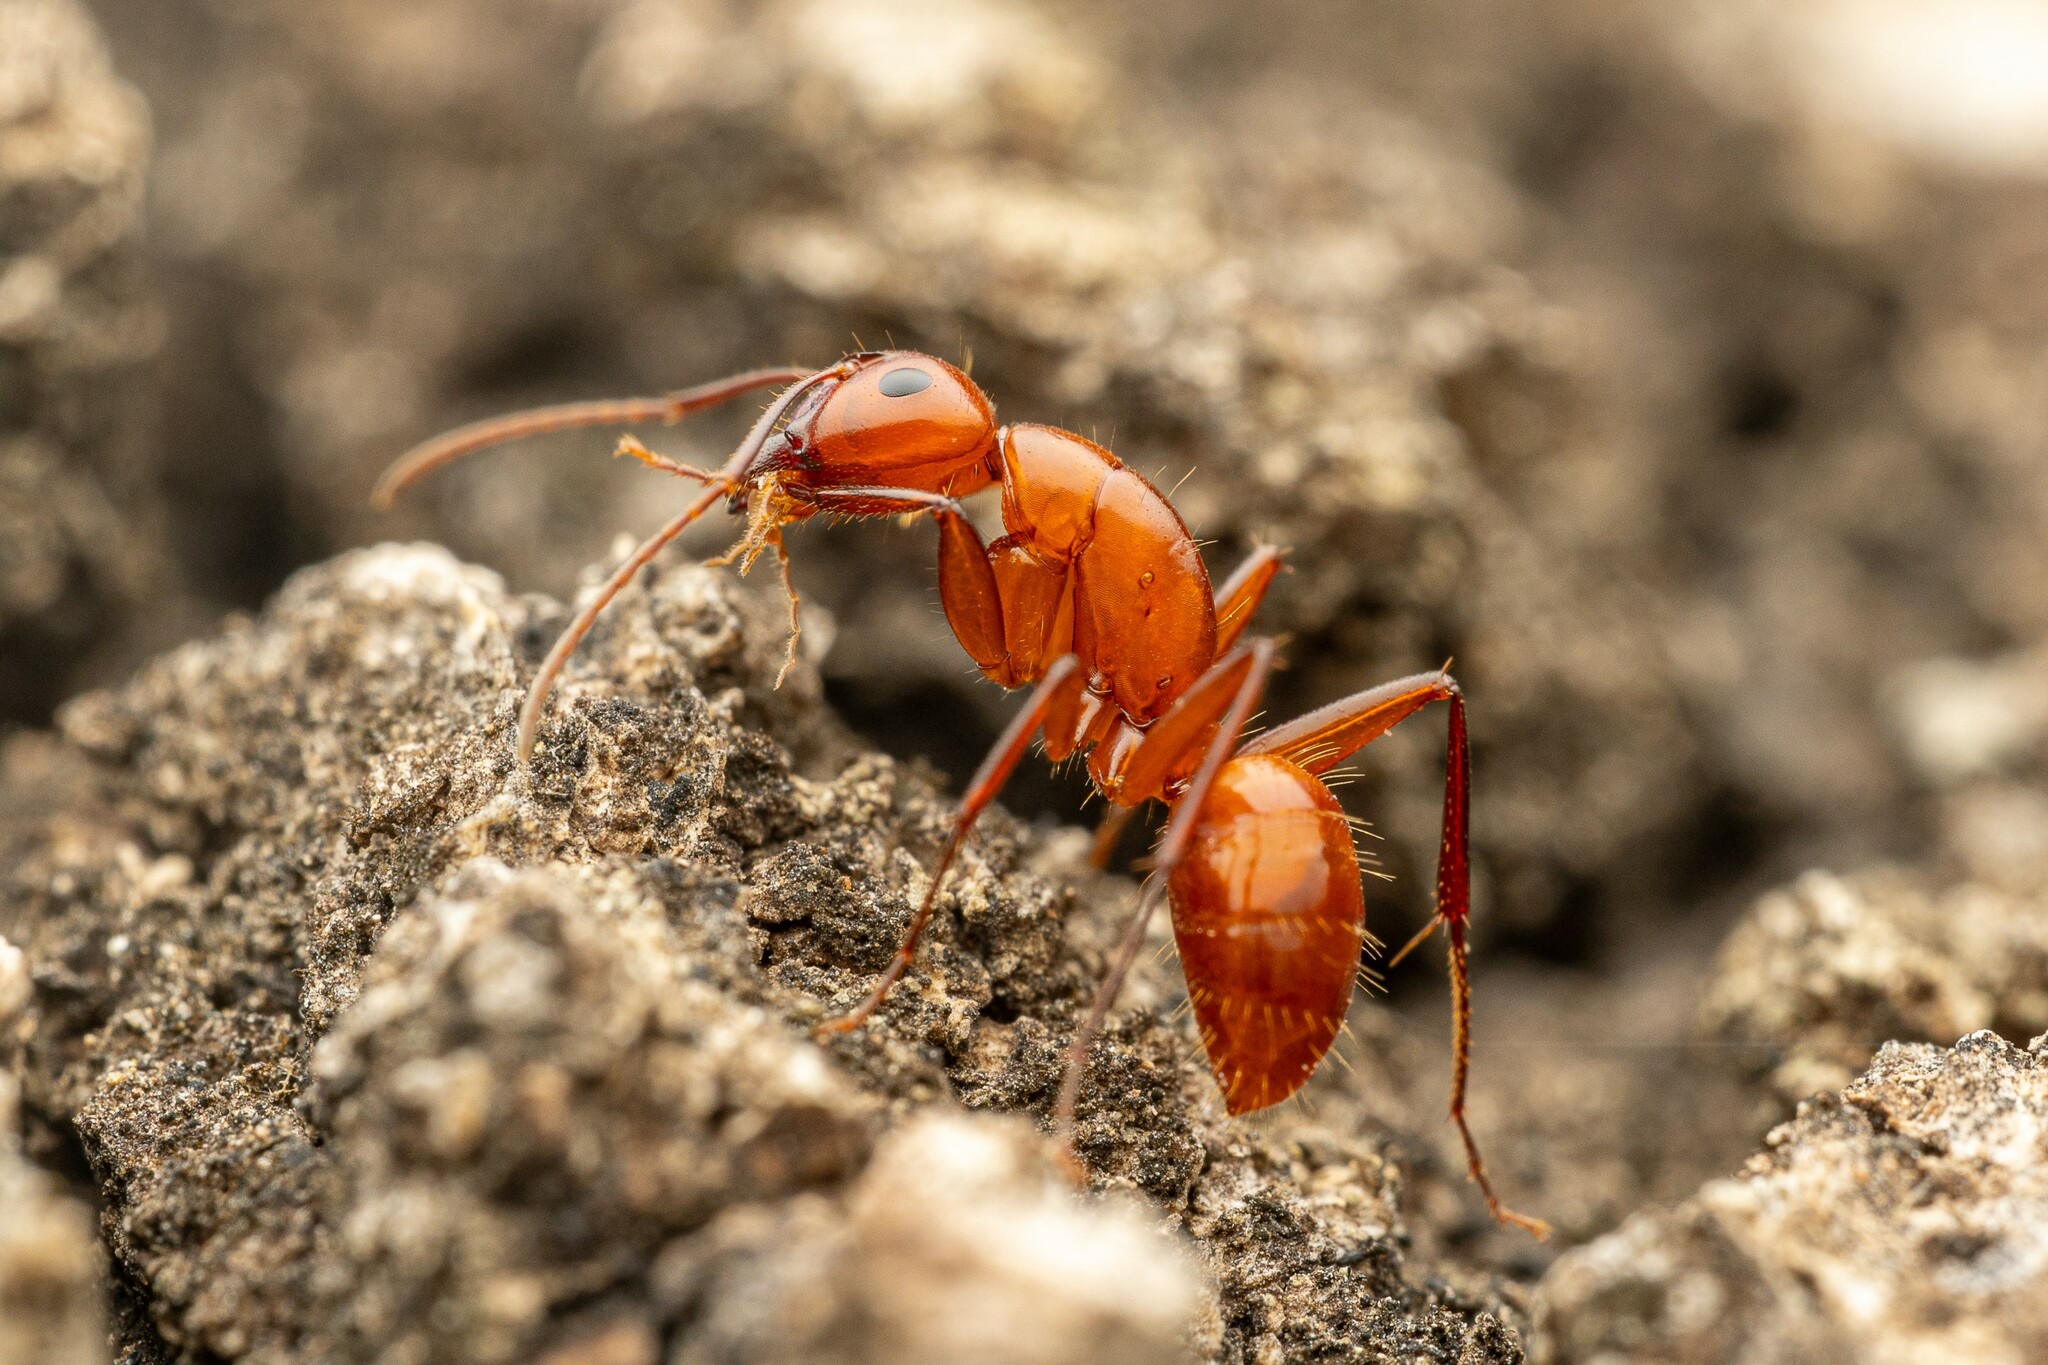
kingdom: Animalia
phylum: Arthropoda
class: Insecta
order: Hymenoptera
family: Formicidae
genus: Camponotus
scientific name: Camponotus schaefferi
